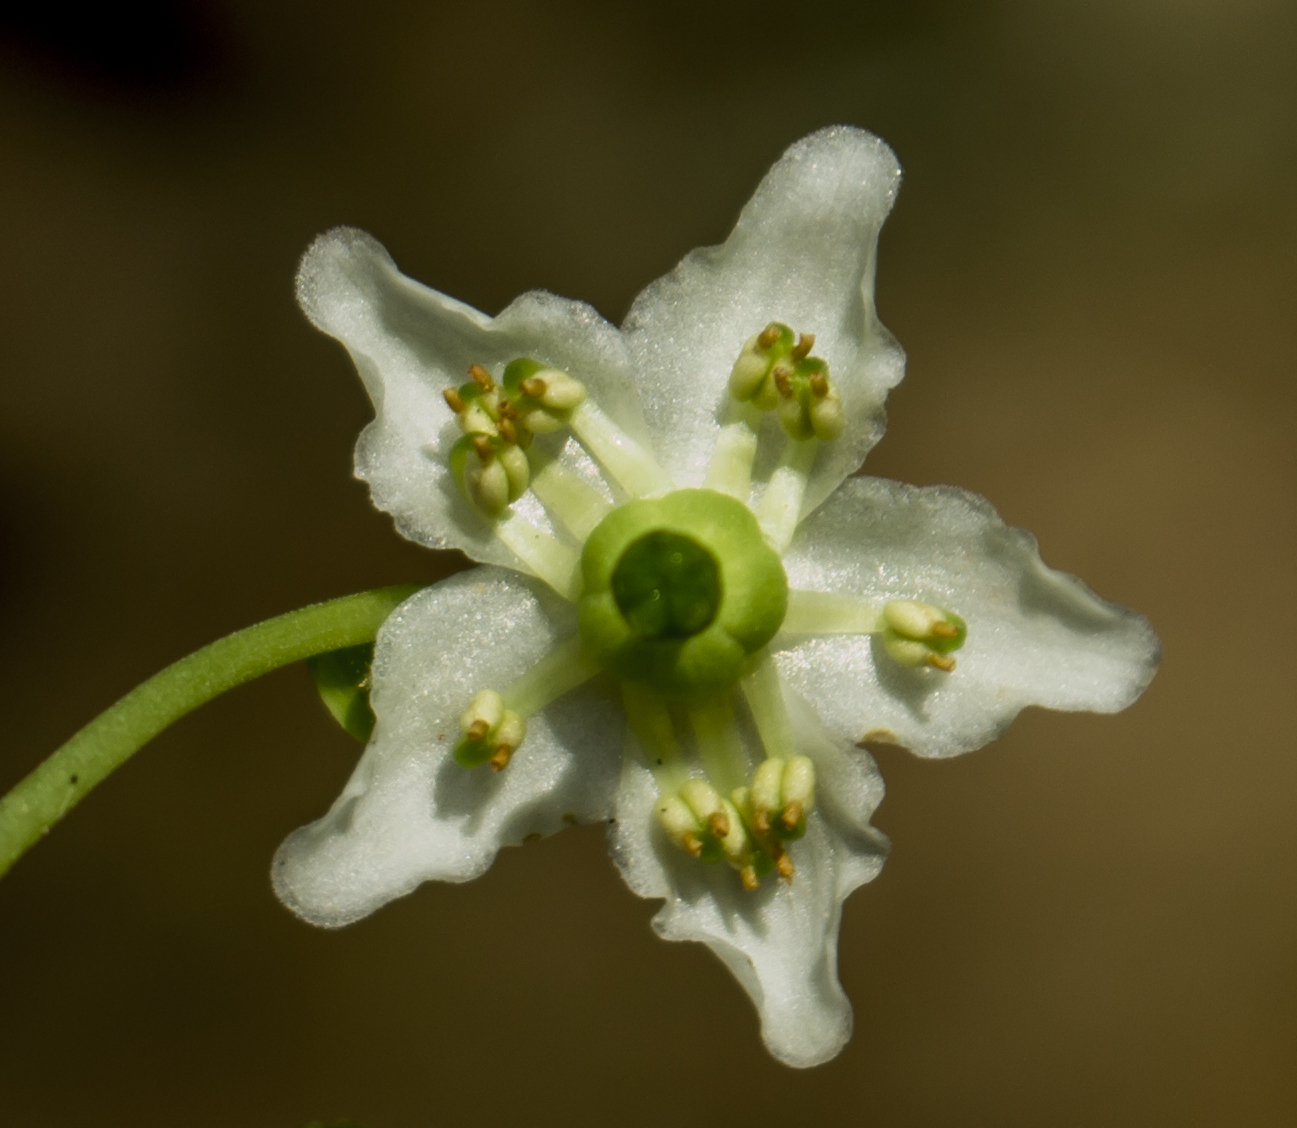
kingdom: Plantae
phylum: Tracheophyta
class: Magnoliopsida
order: Ericales
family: Ericaceae
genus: Moneses
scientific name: Moneses uniflora
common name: One-flowered wintergreen
